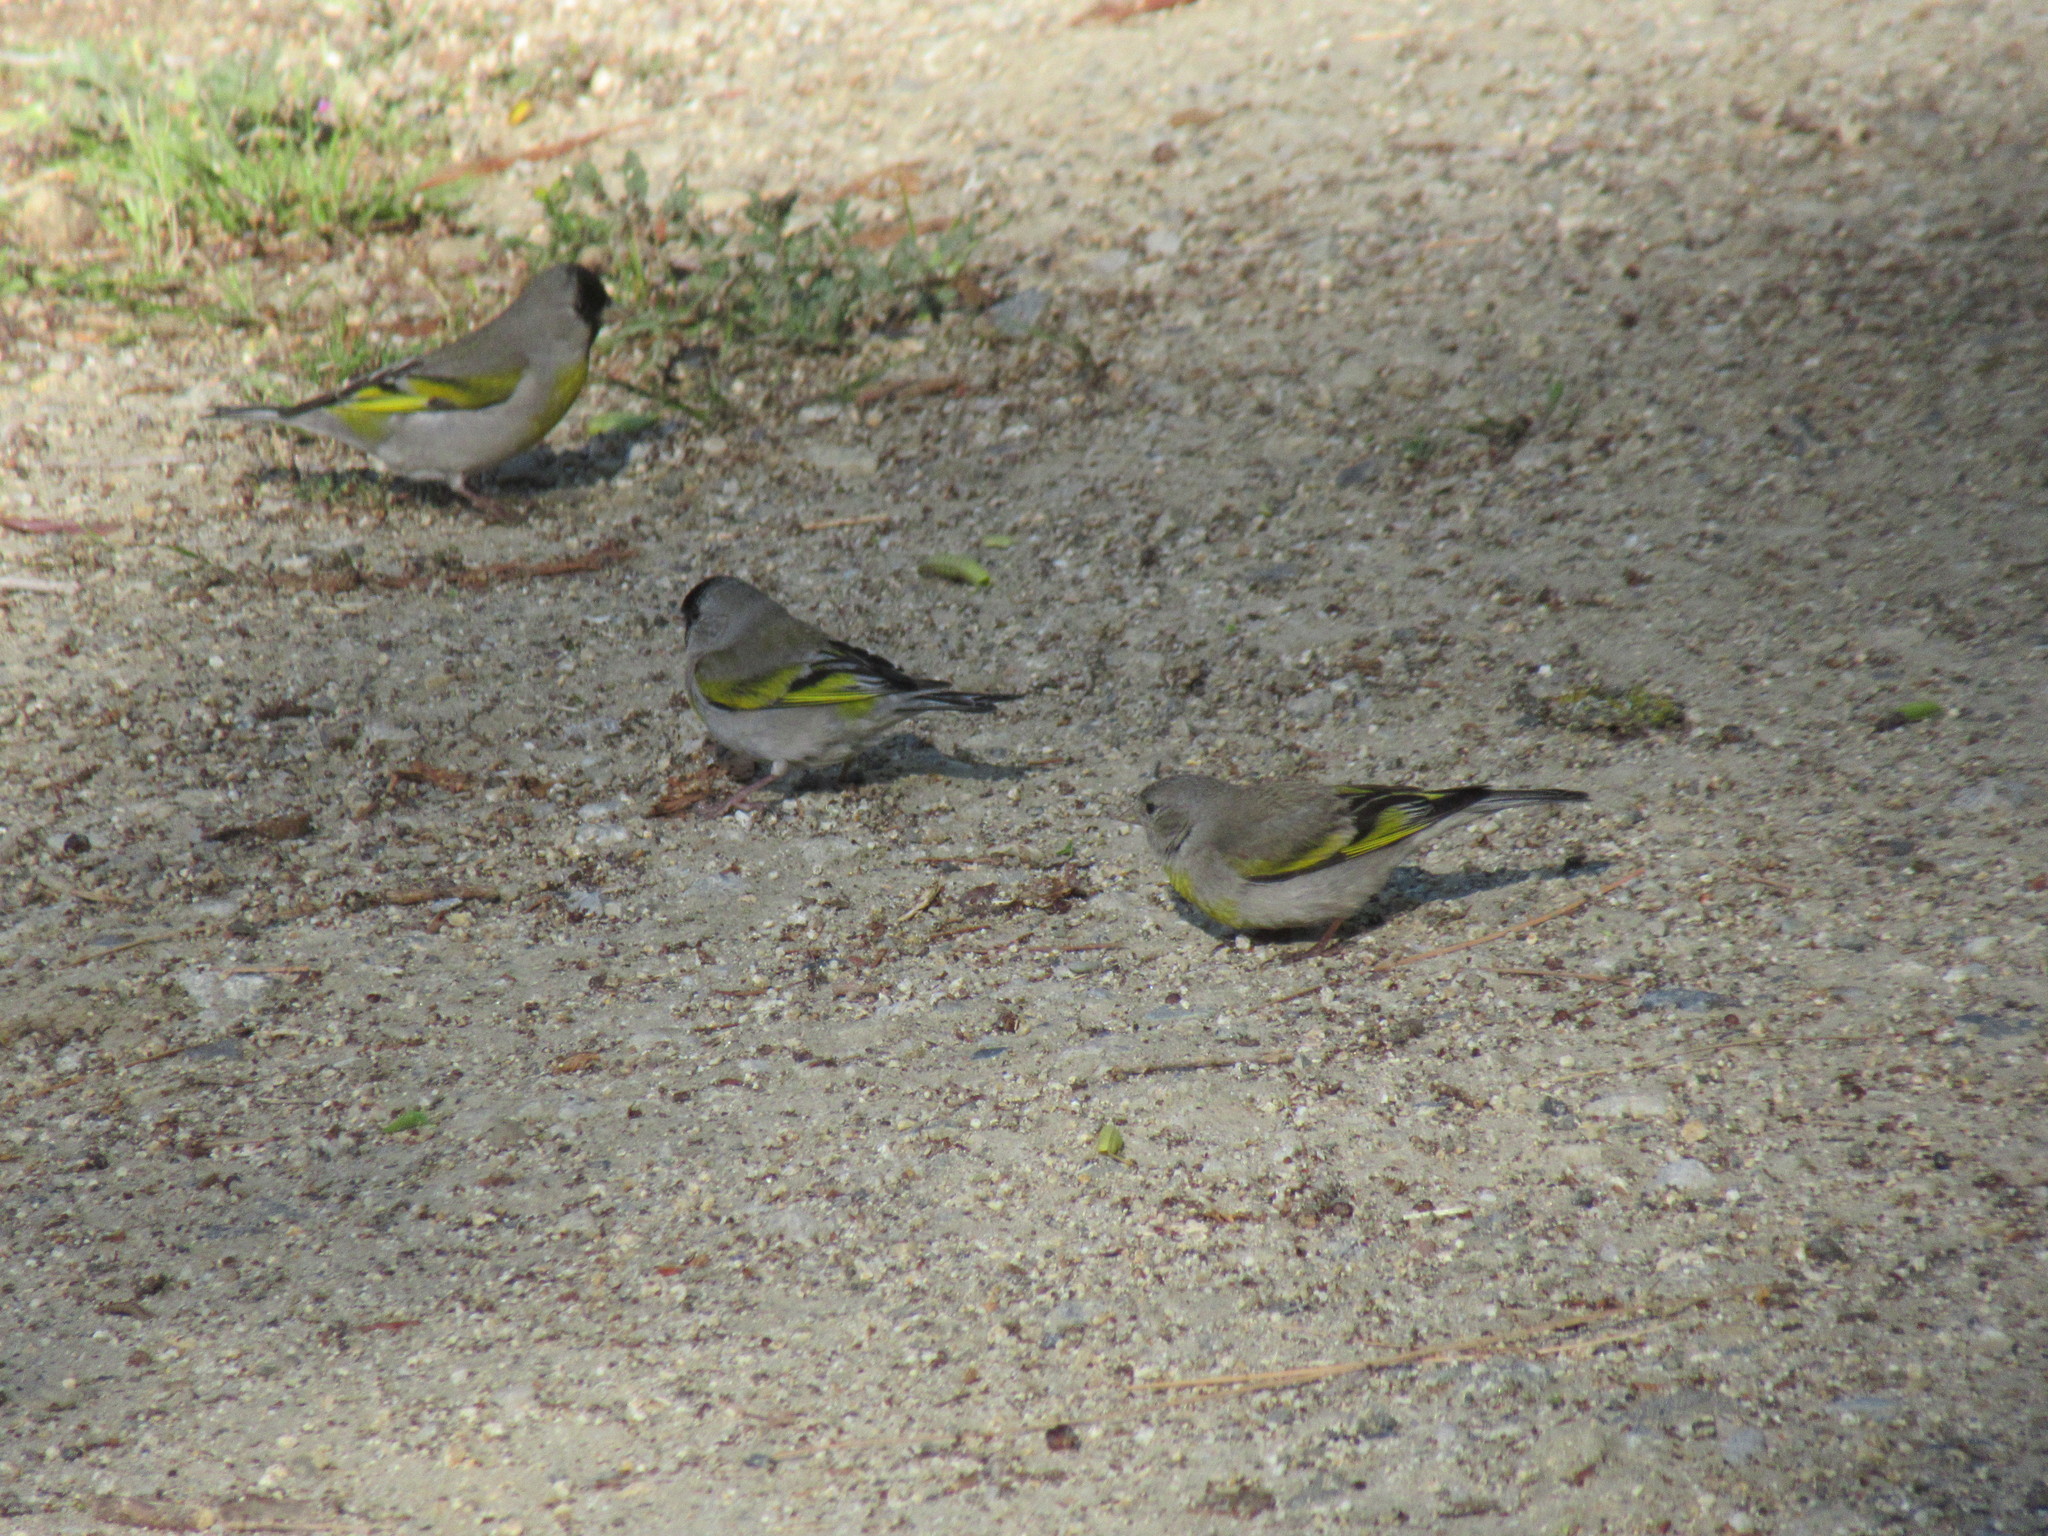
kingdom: Animalia
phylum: Chordata
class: Aves
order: Passeriformes
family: Fringillidae
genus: Spinus
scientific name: Spinus lawrencei
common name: Lawrence's goldfinch
